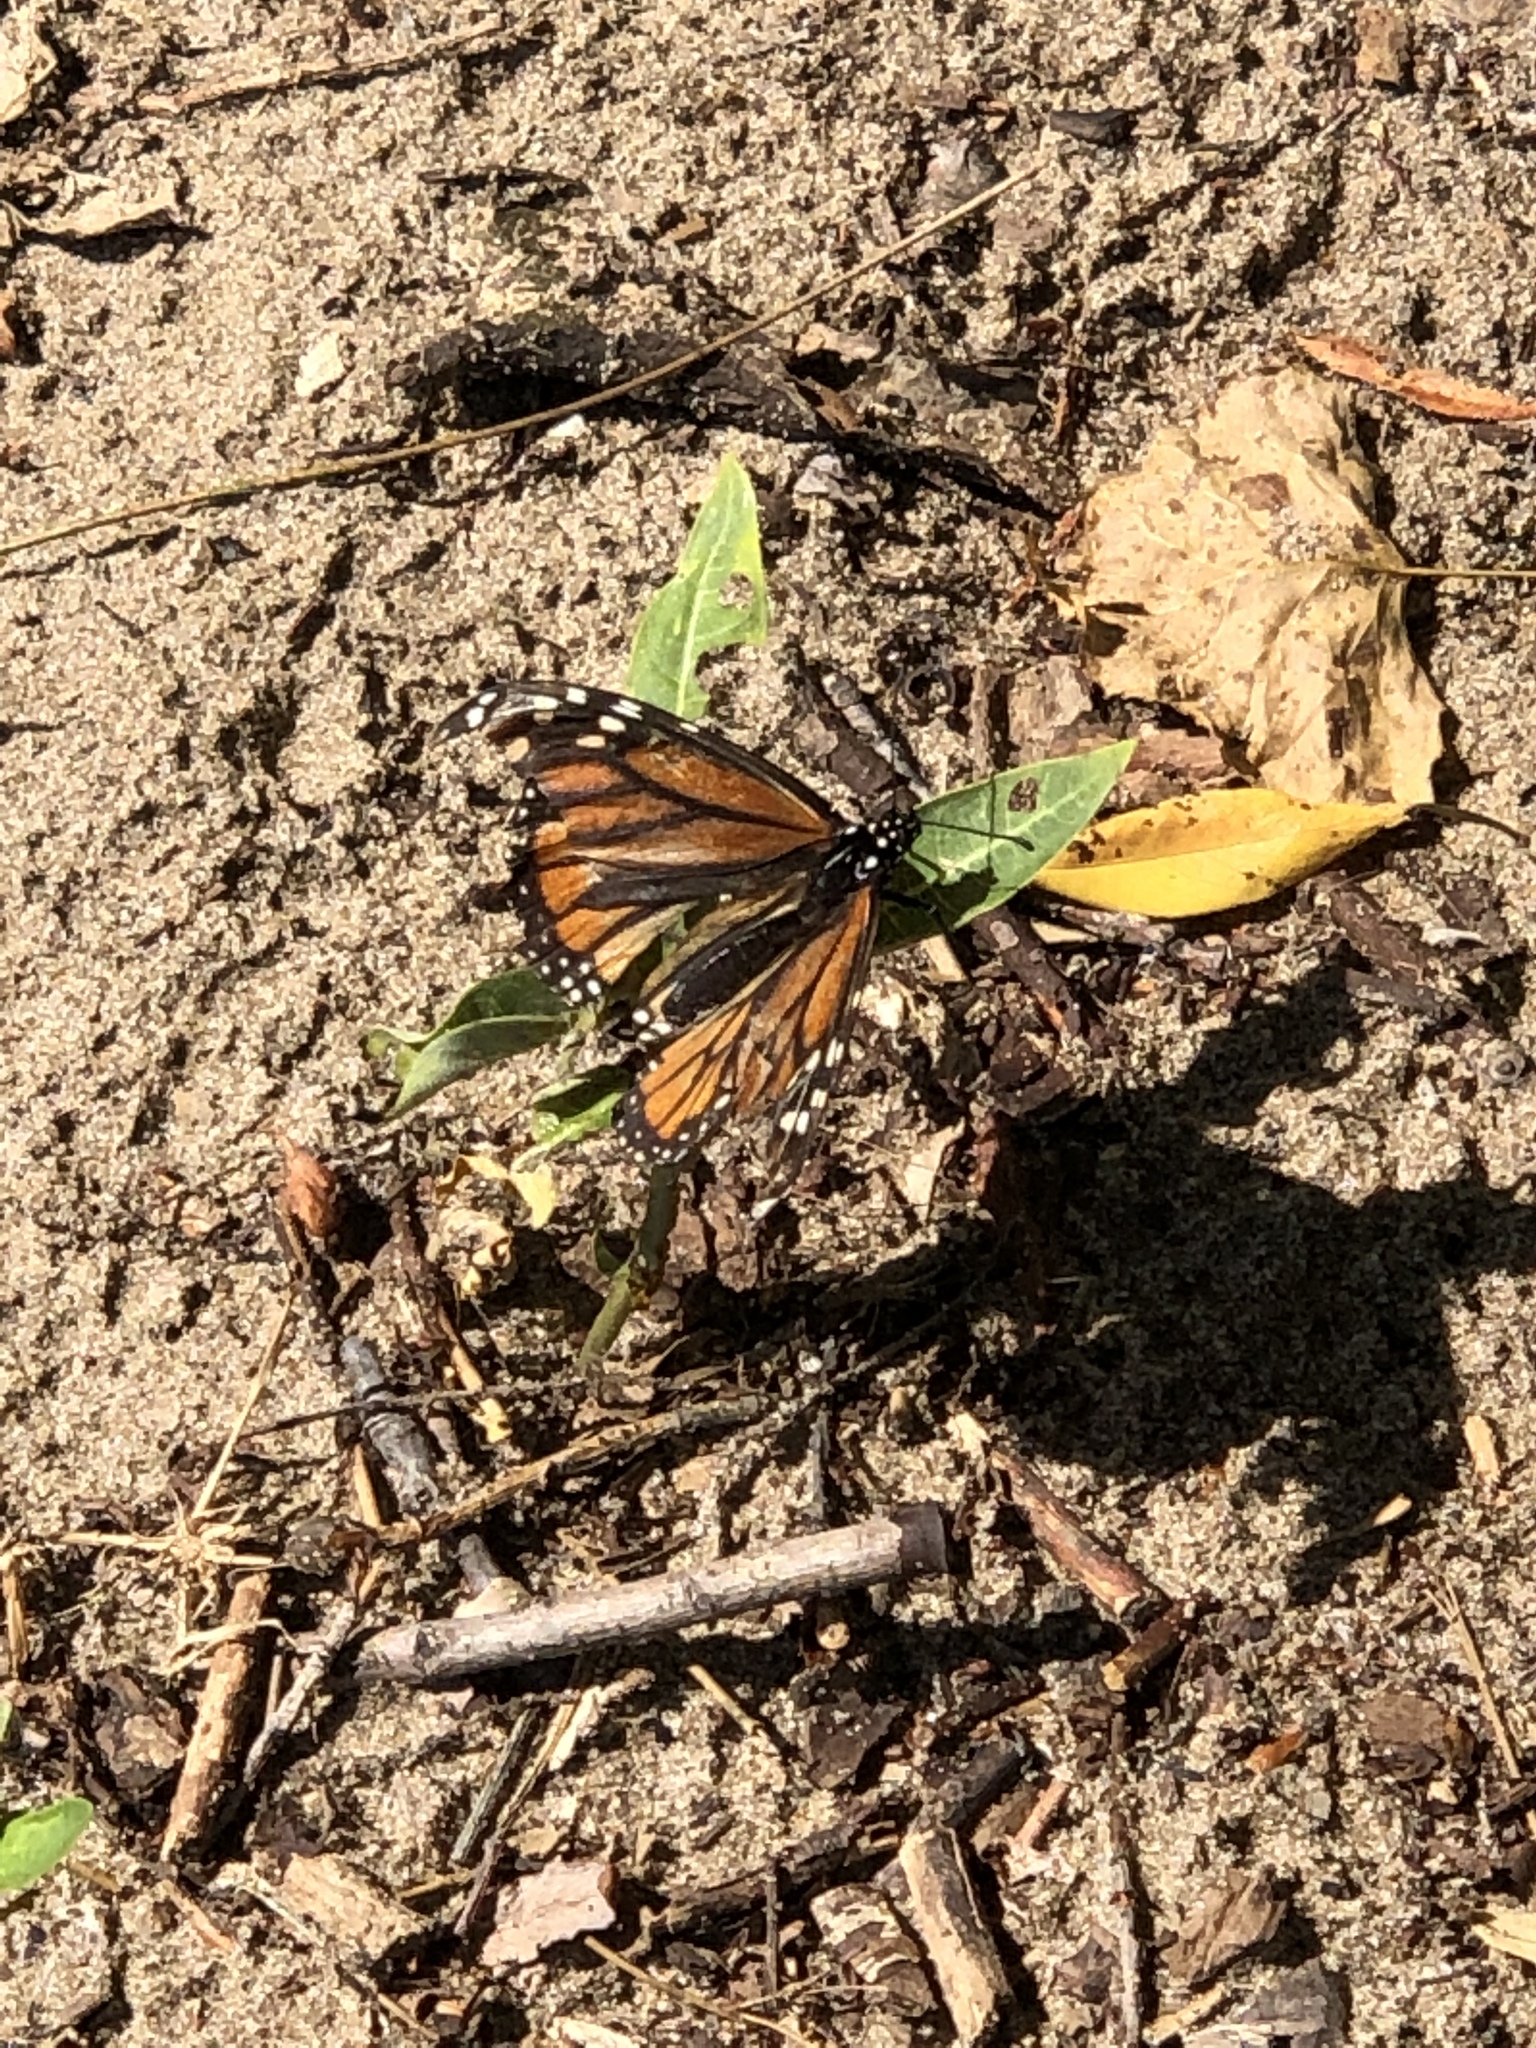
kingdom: Animalia
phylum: Arthropoda
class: Insecta
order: Lepidoptera
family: Nymphalidae
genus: Danaus
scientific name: Danaus plexippus
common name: Monarch
